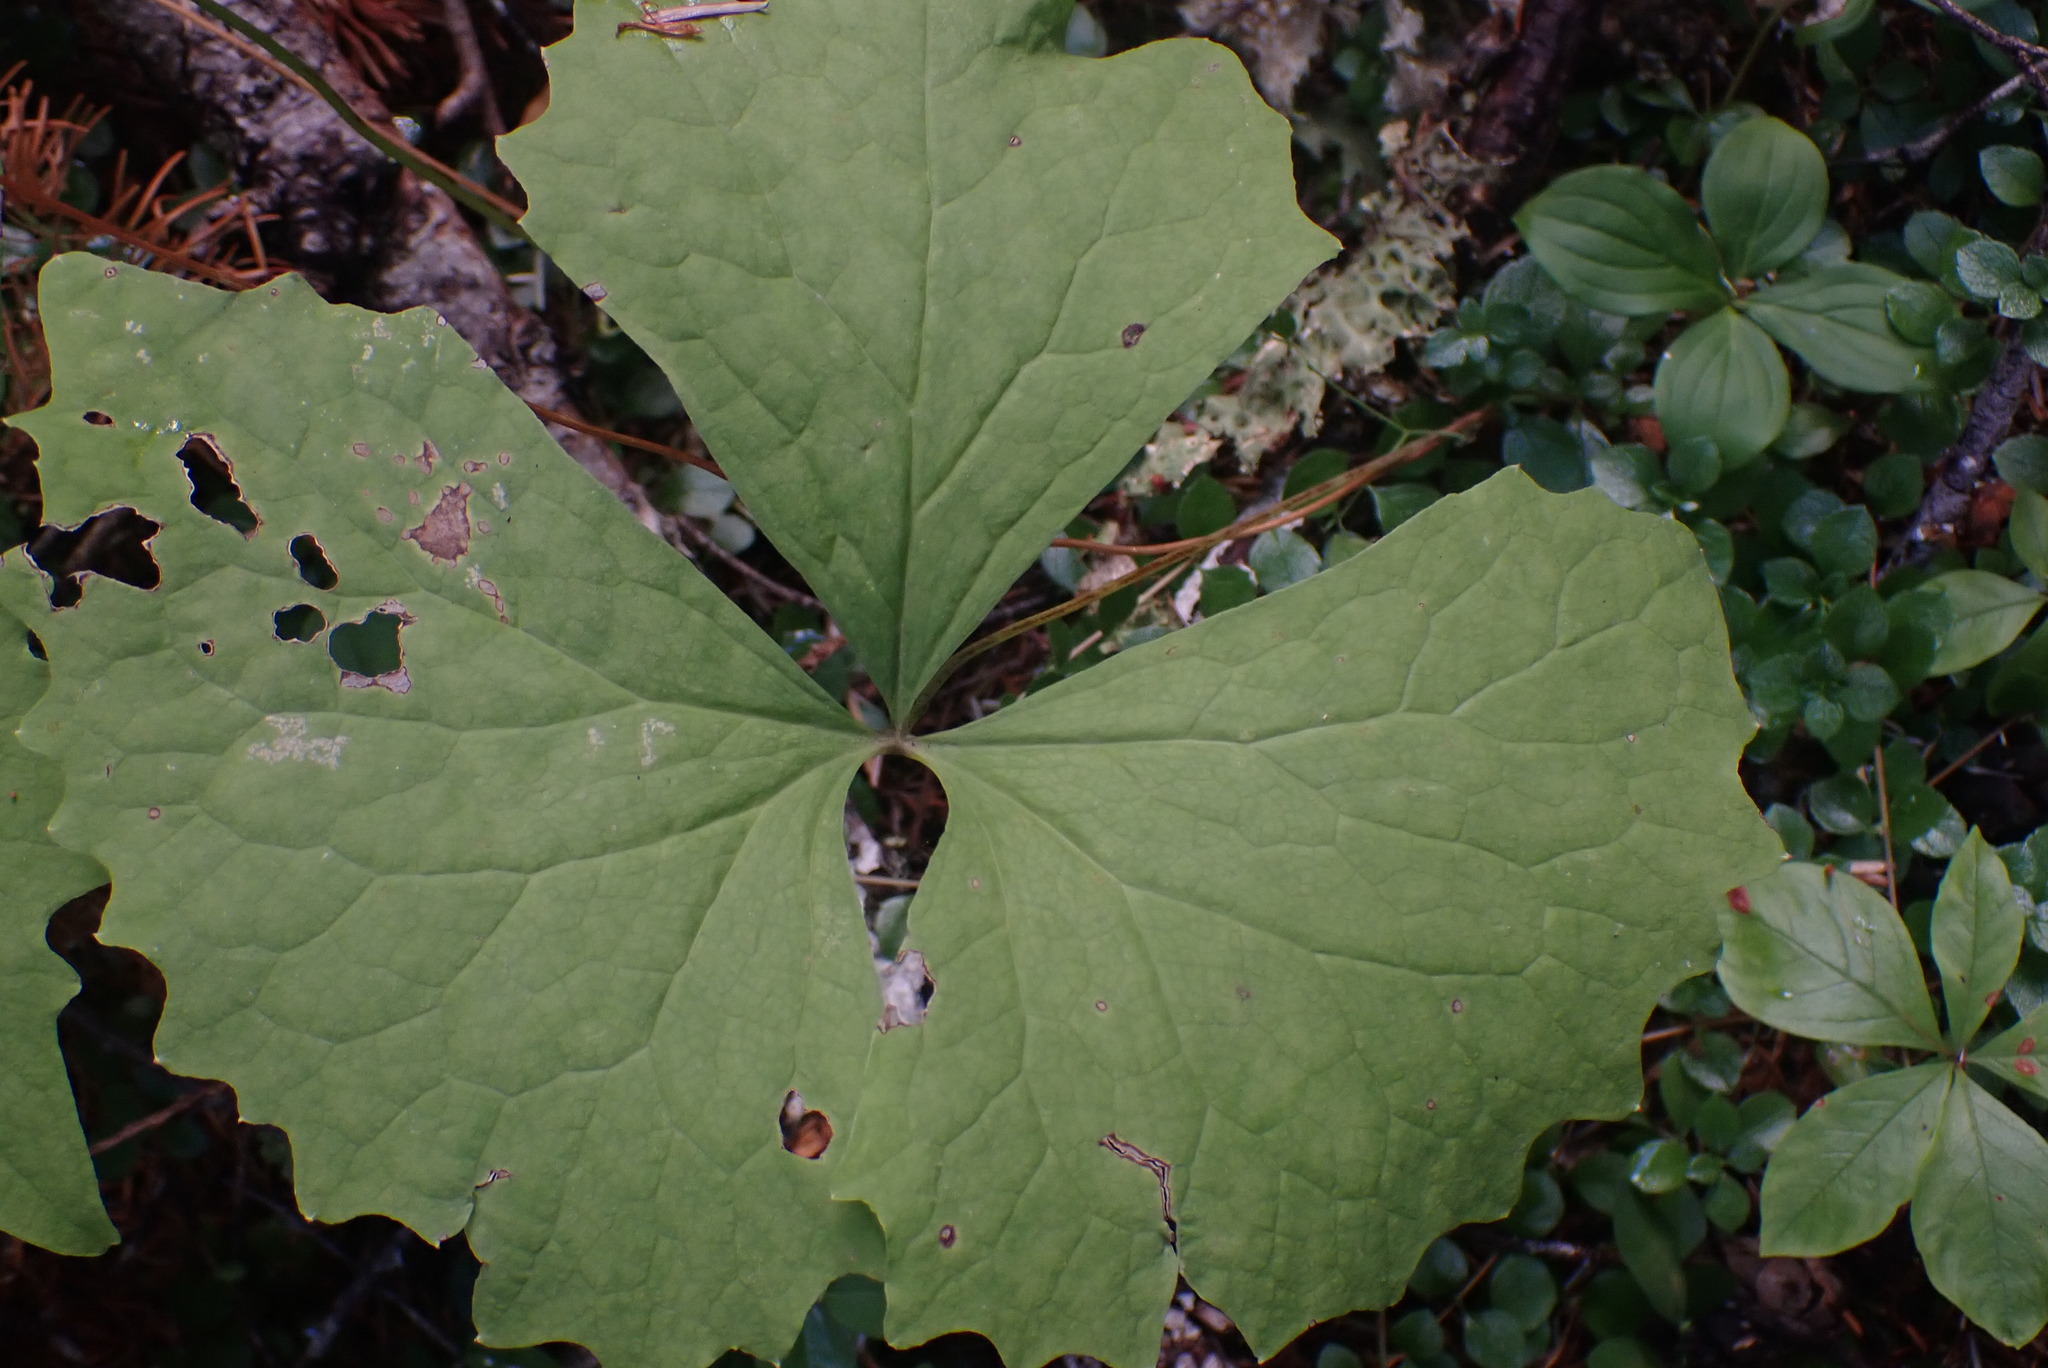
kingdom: Plantae
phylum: Tracheophyta
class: Magnoliopsida
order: Ranunculales
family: Berberidaceae
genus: Achlys
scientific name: Achlys triphylla
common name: Vanilla-leaf
